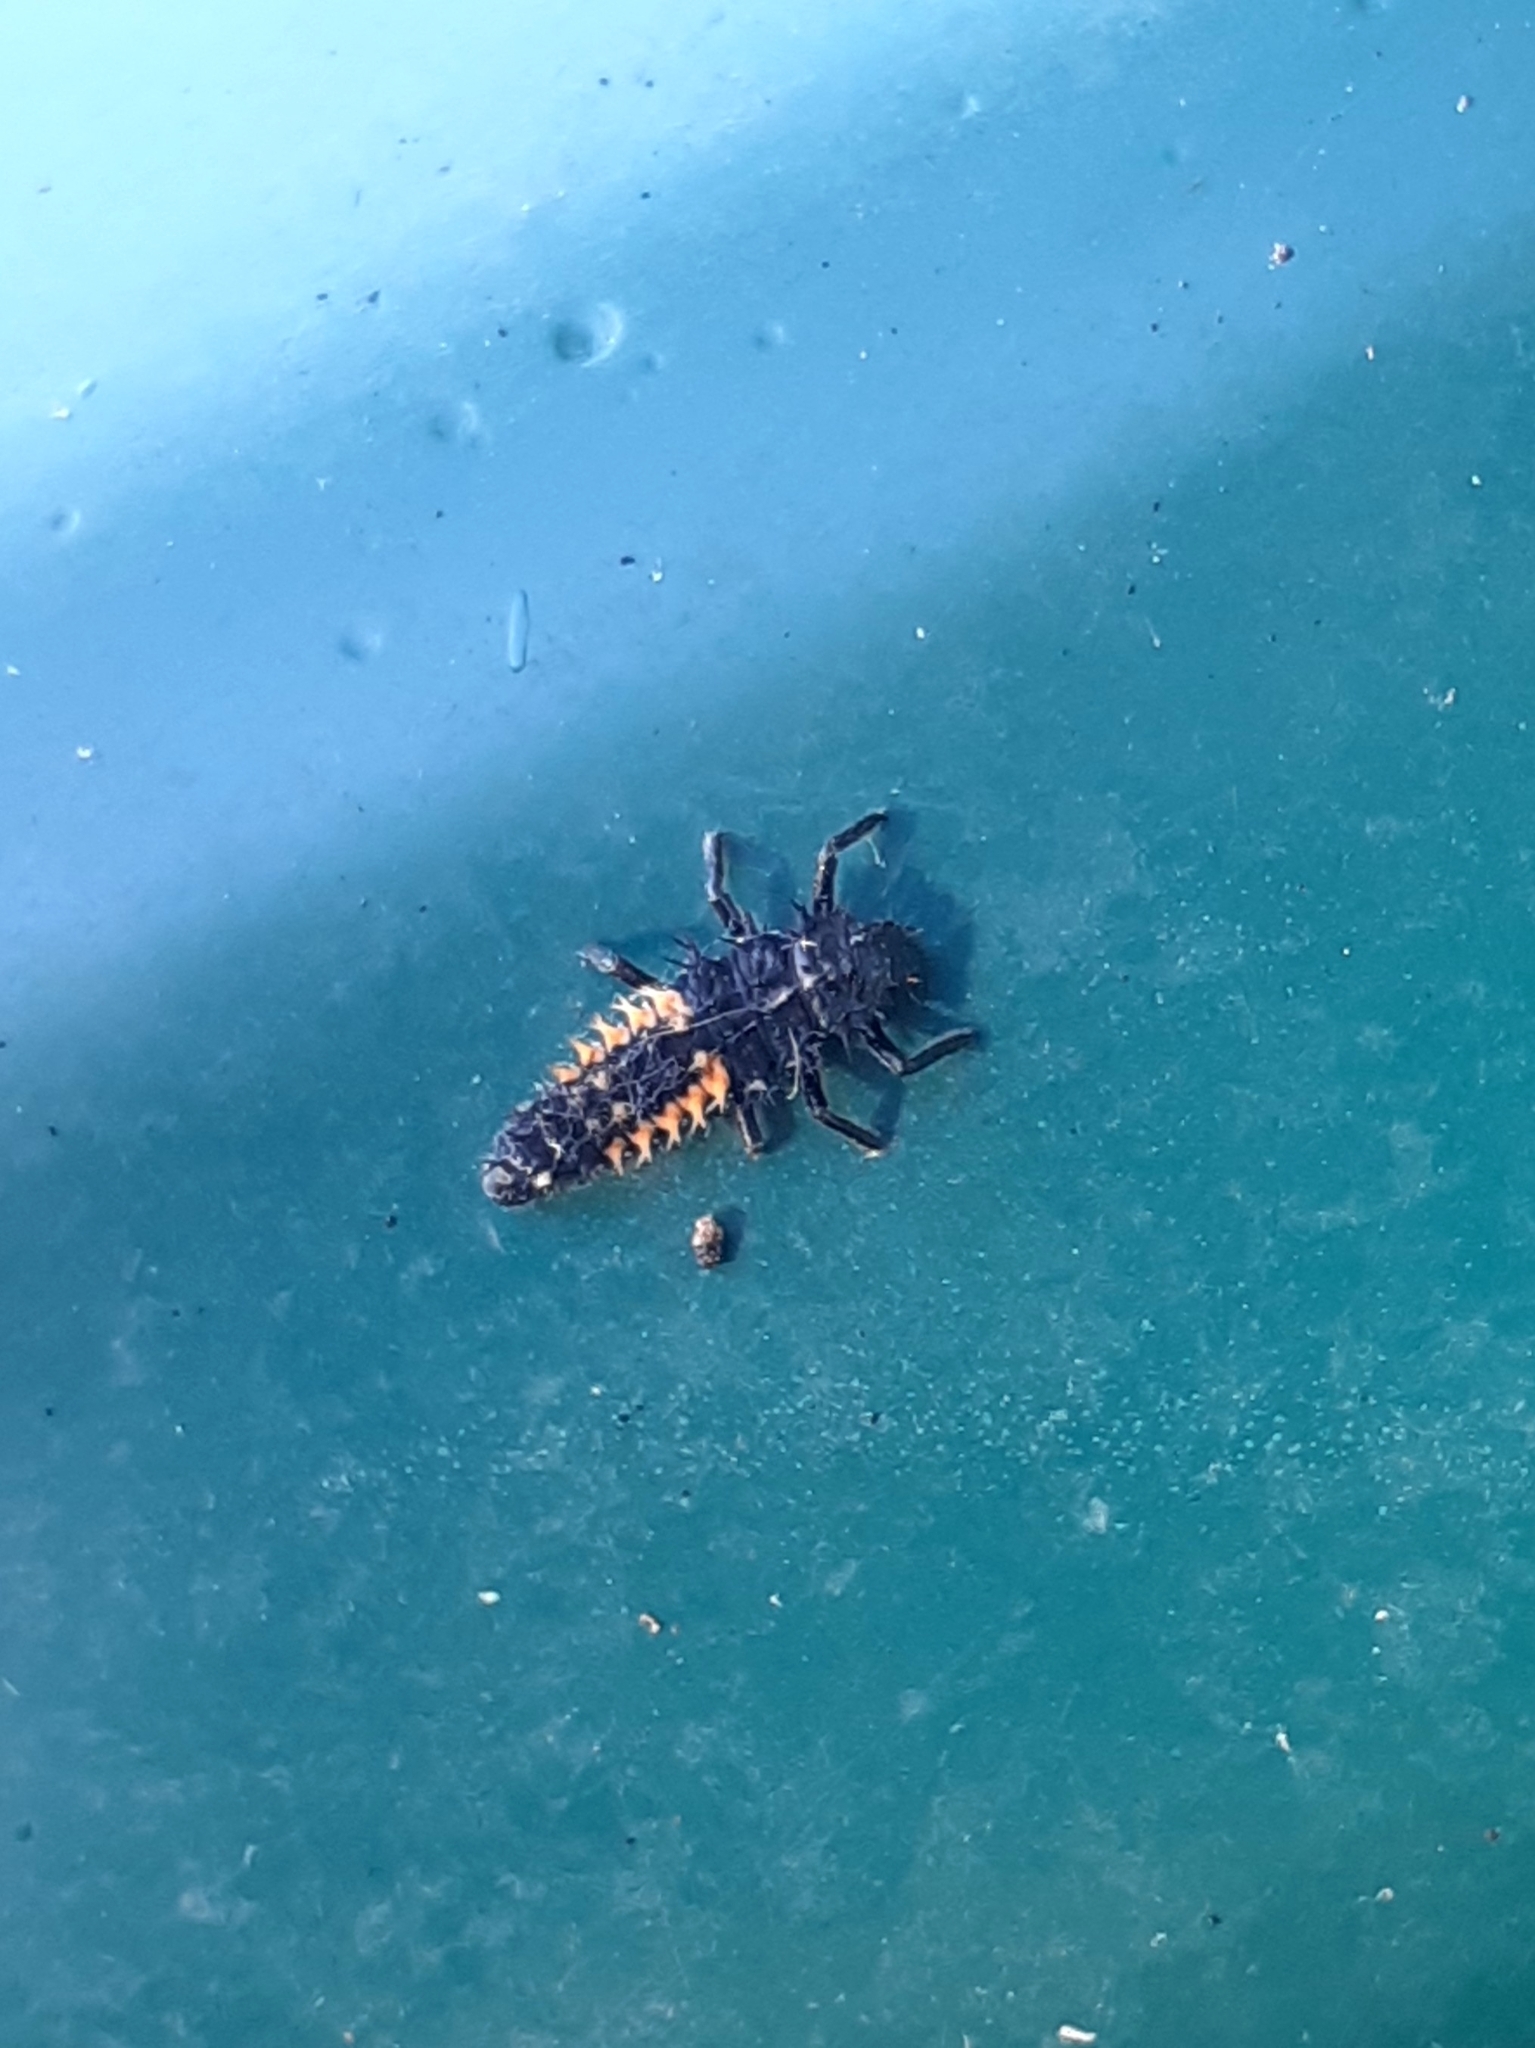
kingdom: Animalia
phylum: Arthropoda
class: Insecta
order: Coleoptera
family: Coccinellidae
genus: Harmonia
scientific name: Harmonia axyridis
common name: Harlequin ladybird
